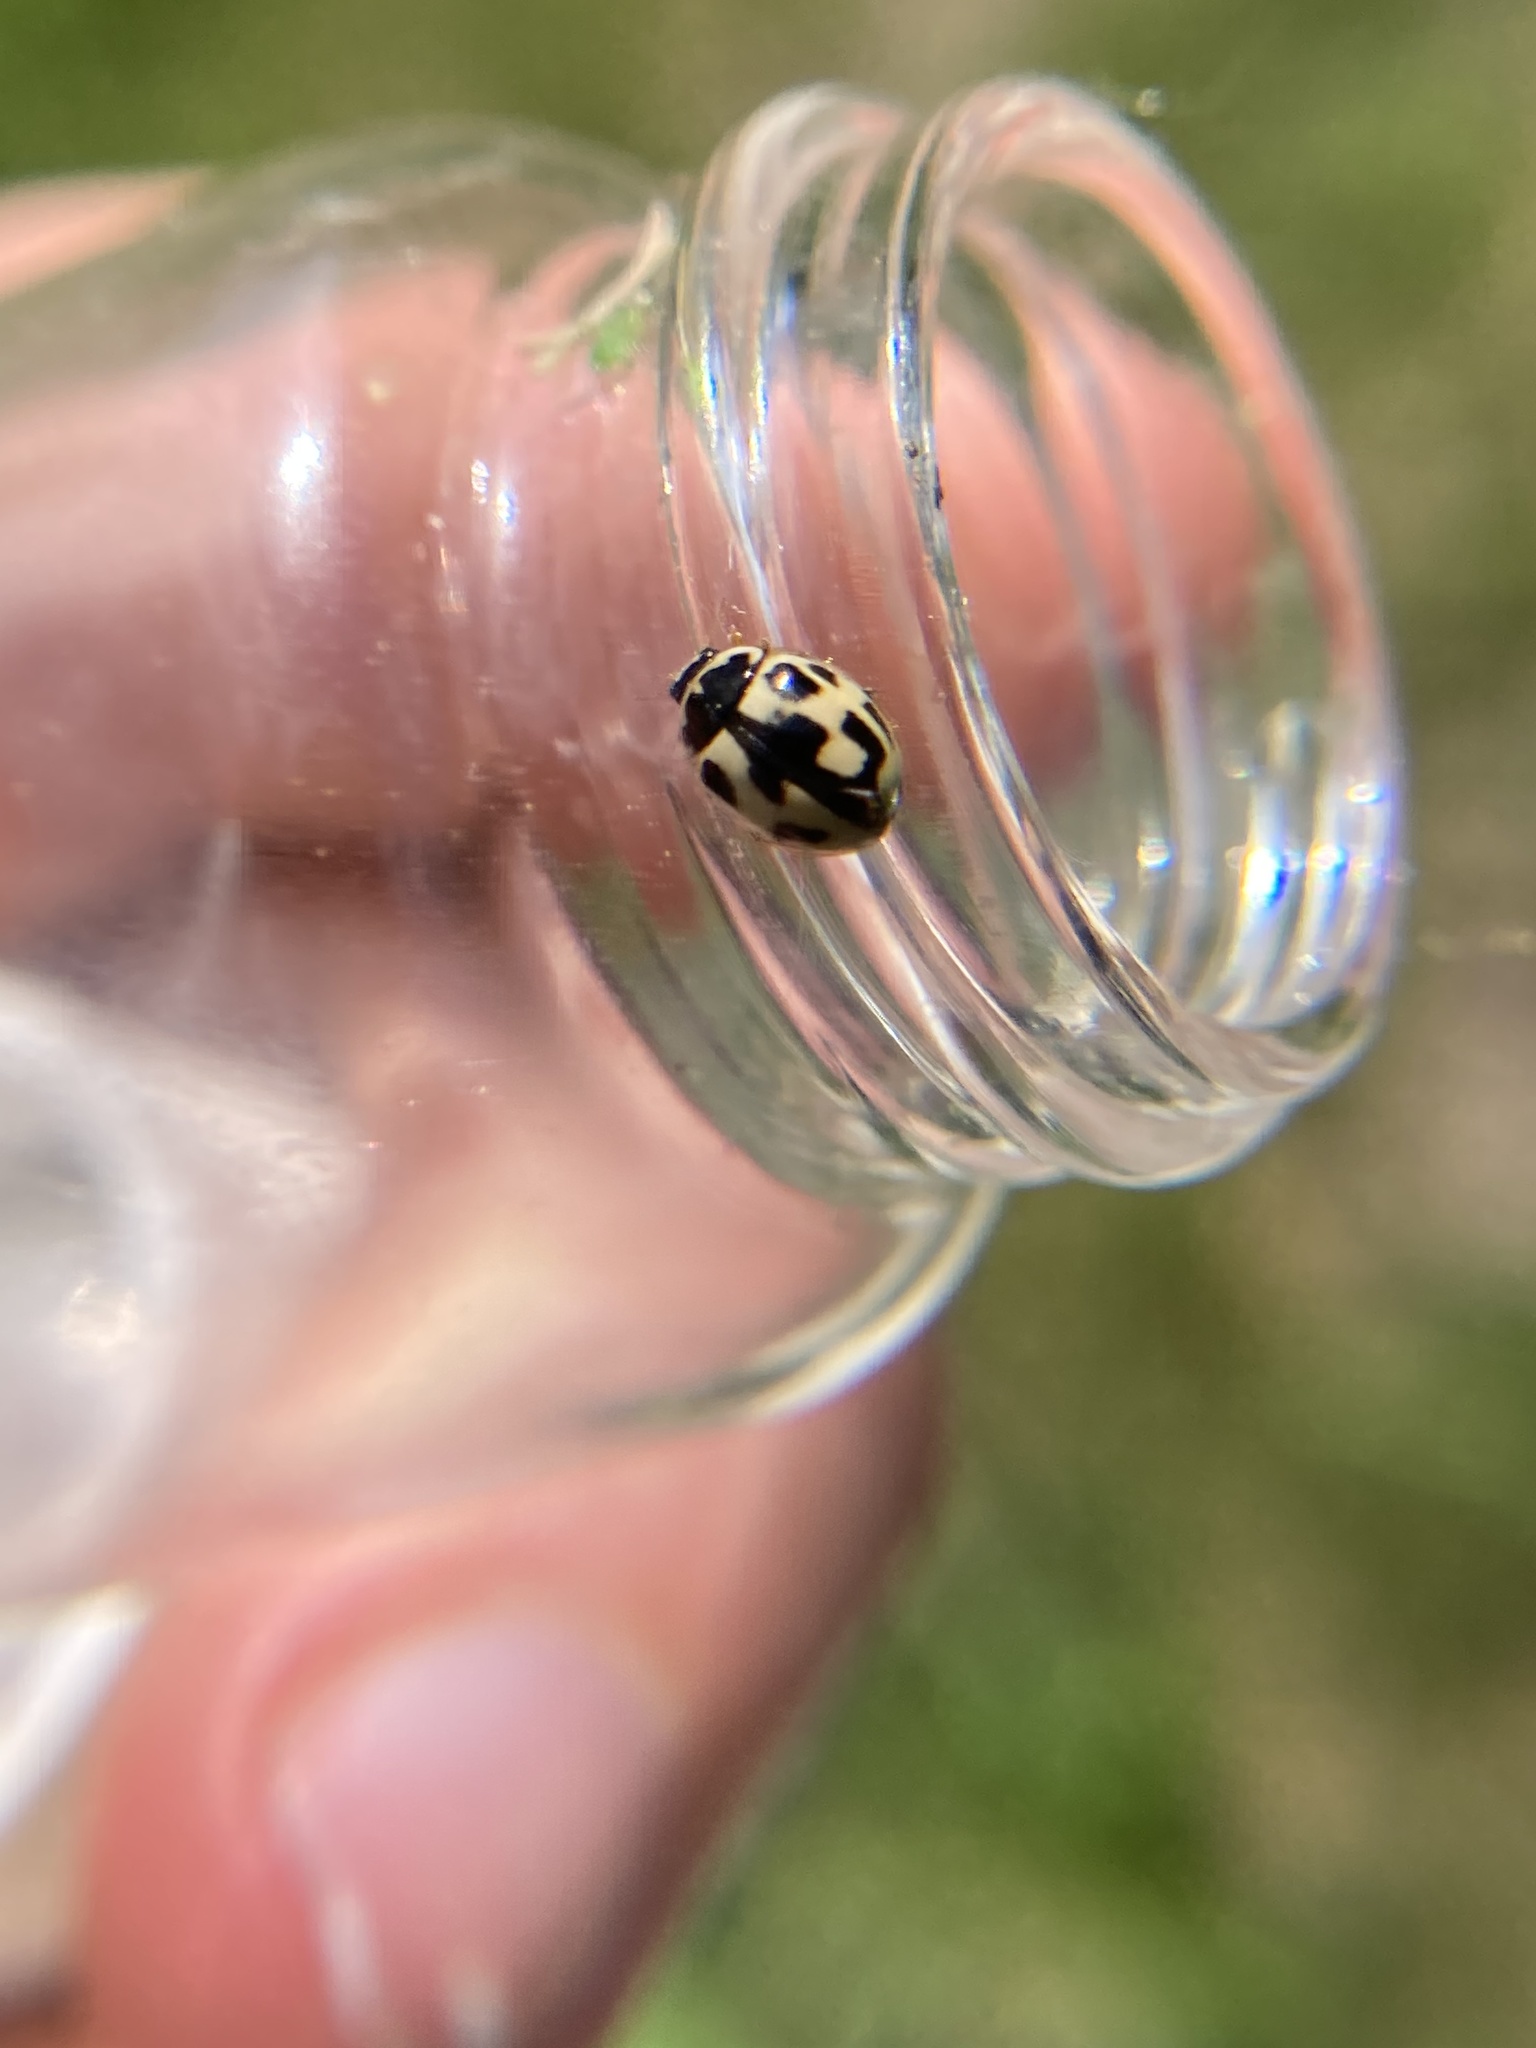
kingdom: Animalia
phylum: Arthropoda
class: Insecta
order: Coleoptera
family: Coccinellidae
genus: Propylaea
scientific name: Propylaea quatuordecimpunctata
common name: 14-spotted ladybird beetle
